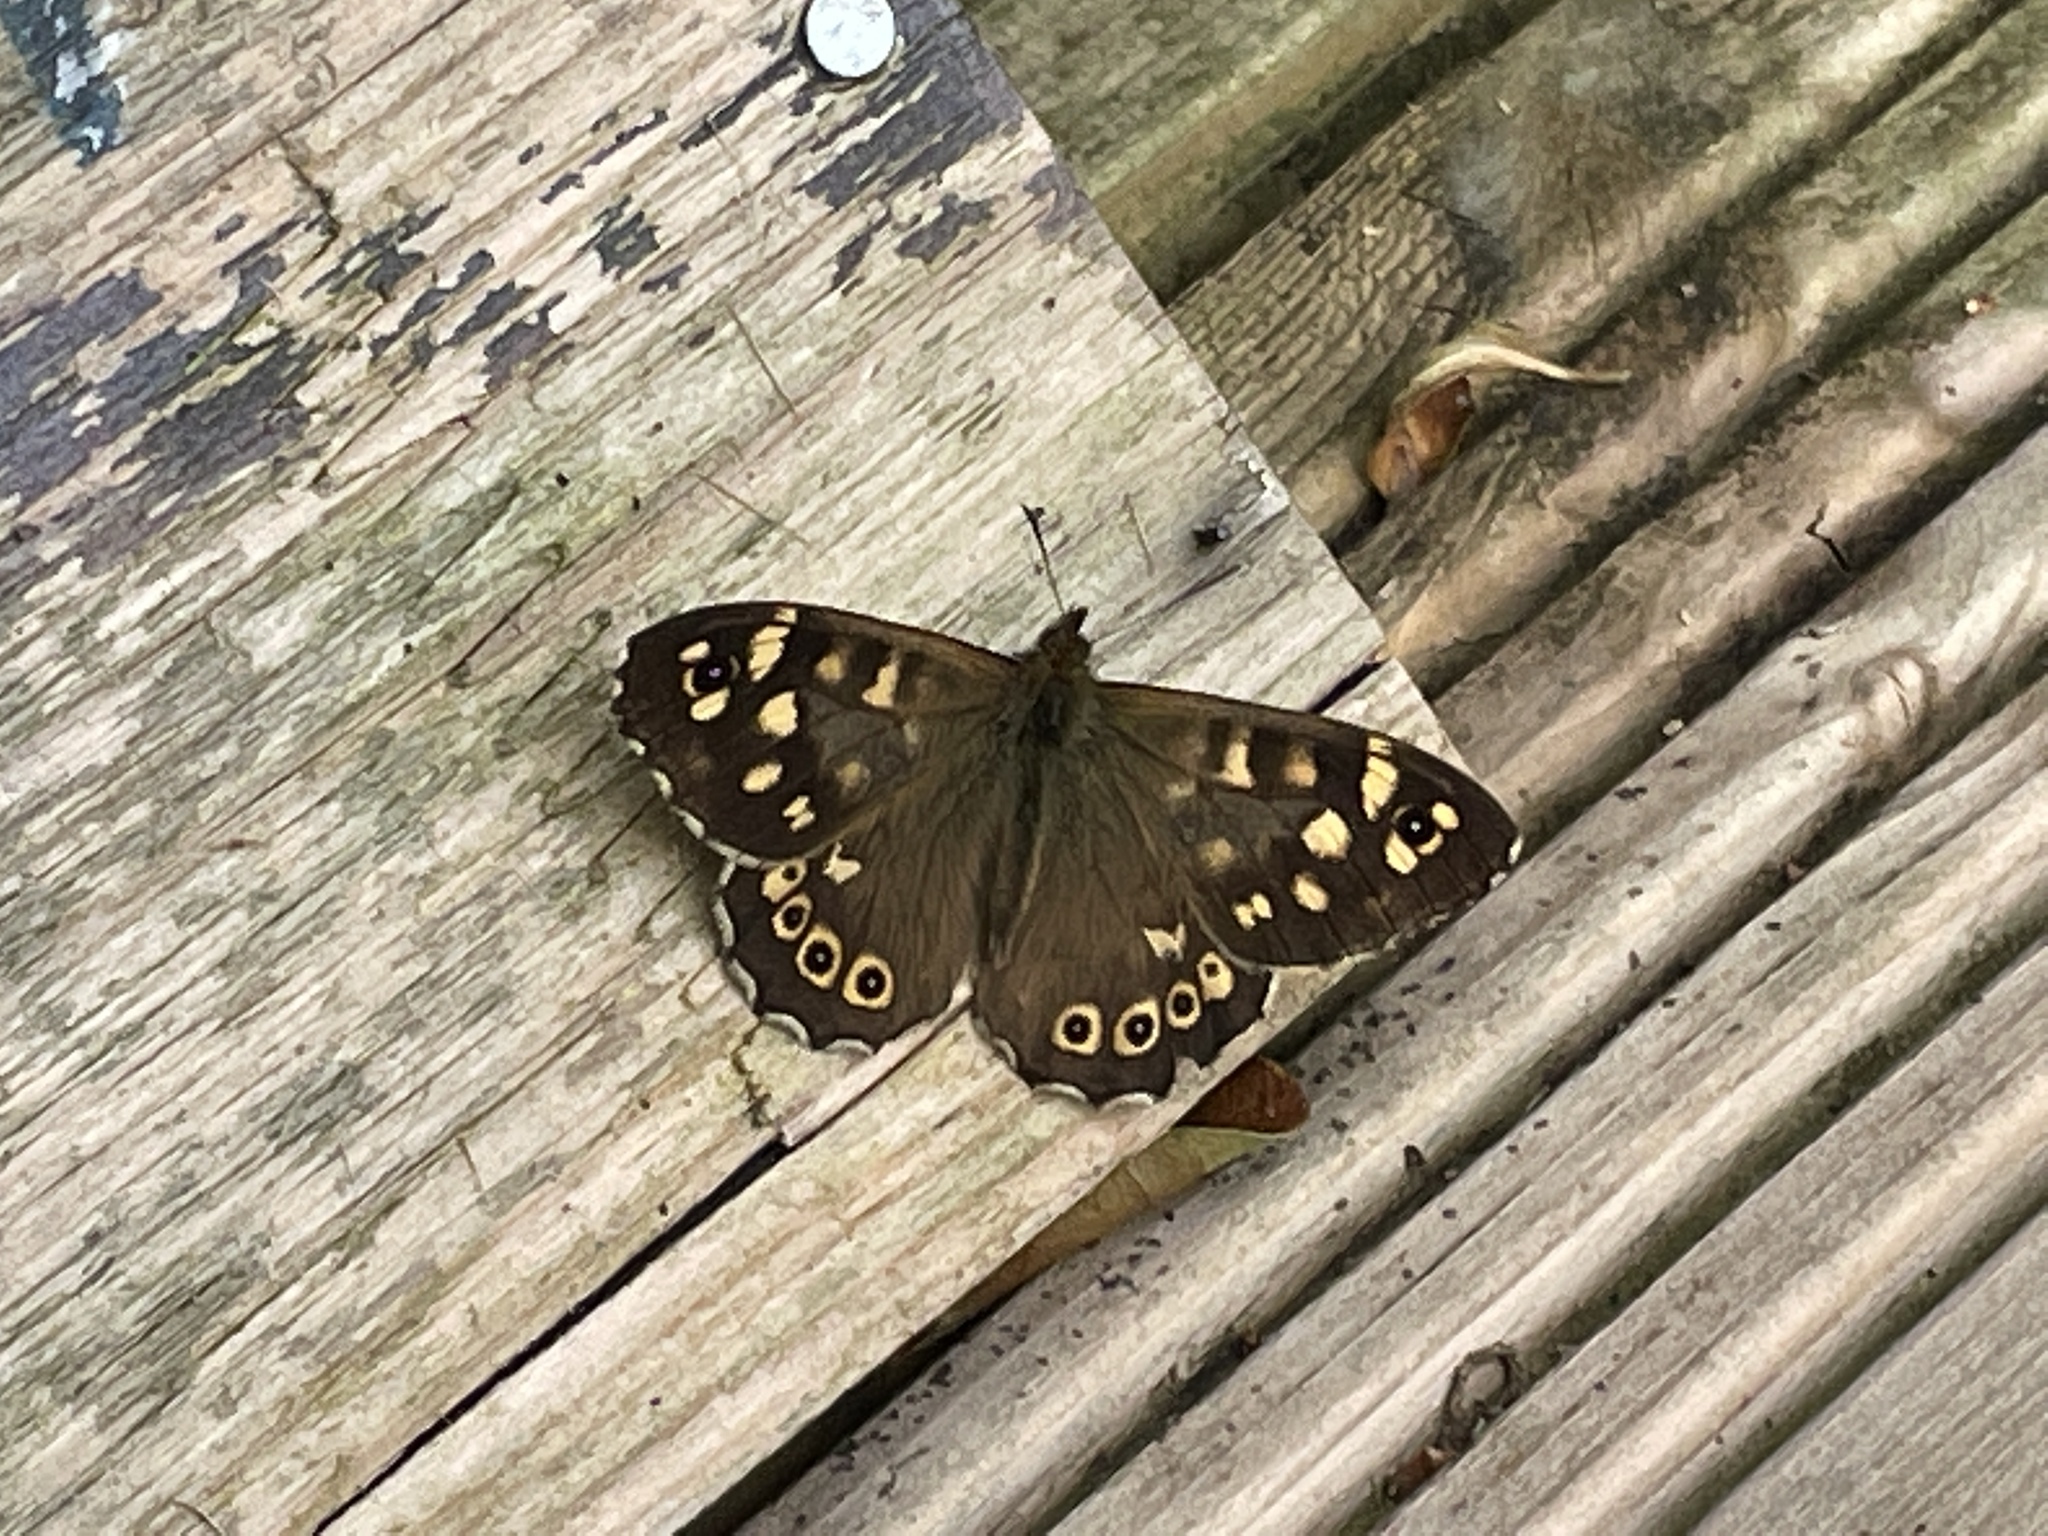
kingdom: Animalia
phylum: Arthropoda
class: Insecta
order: Lepidoptera
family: Nymphalidae
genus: Pararge
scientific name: Pararge aegeria
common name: Speckled wood
